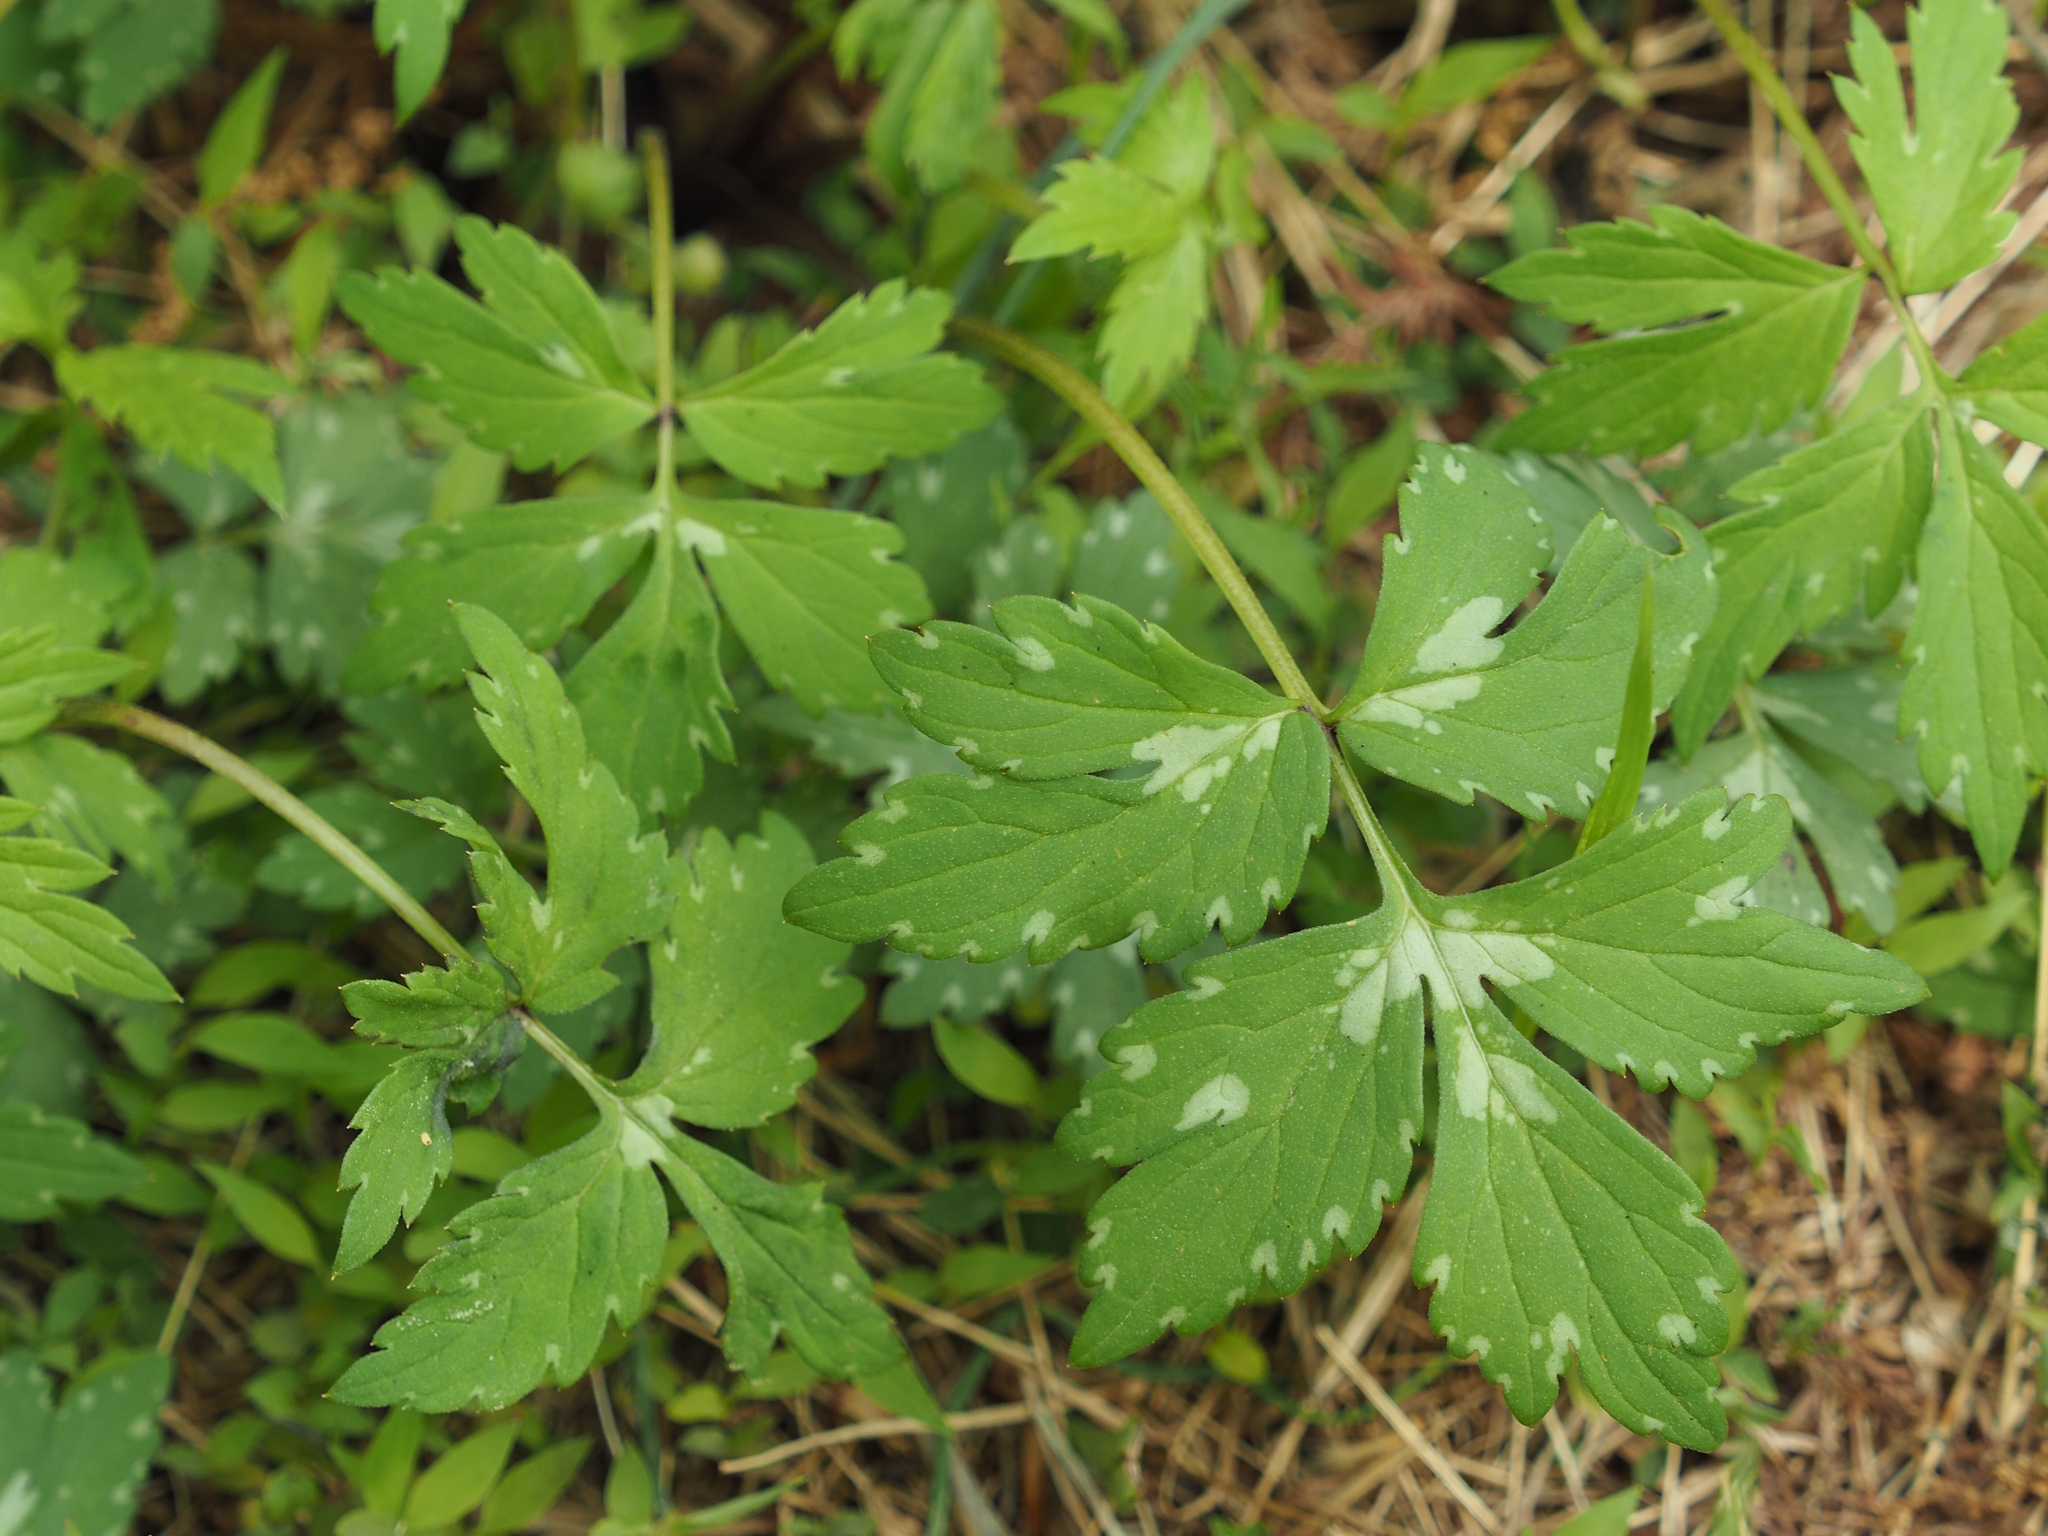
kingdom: Plantae
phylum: Tracheophyta
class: Magnoliopsida
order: Boraginales
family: Hydrophyllaceae
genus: Hydrophyllum
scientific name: Hydrophyllum virginianum
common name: Virginia waterleaf
